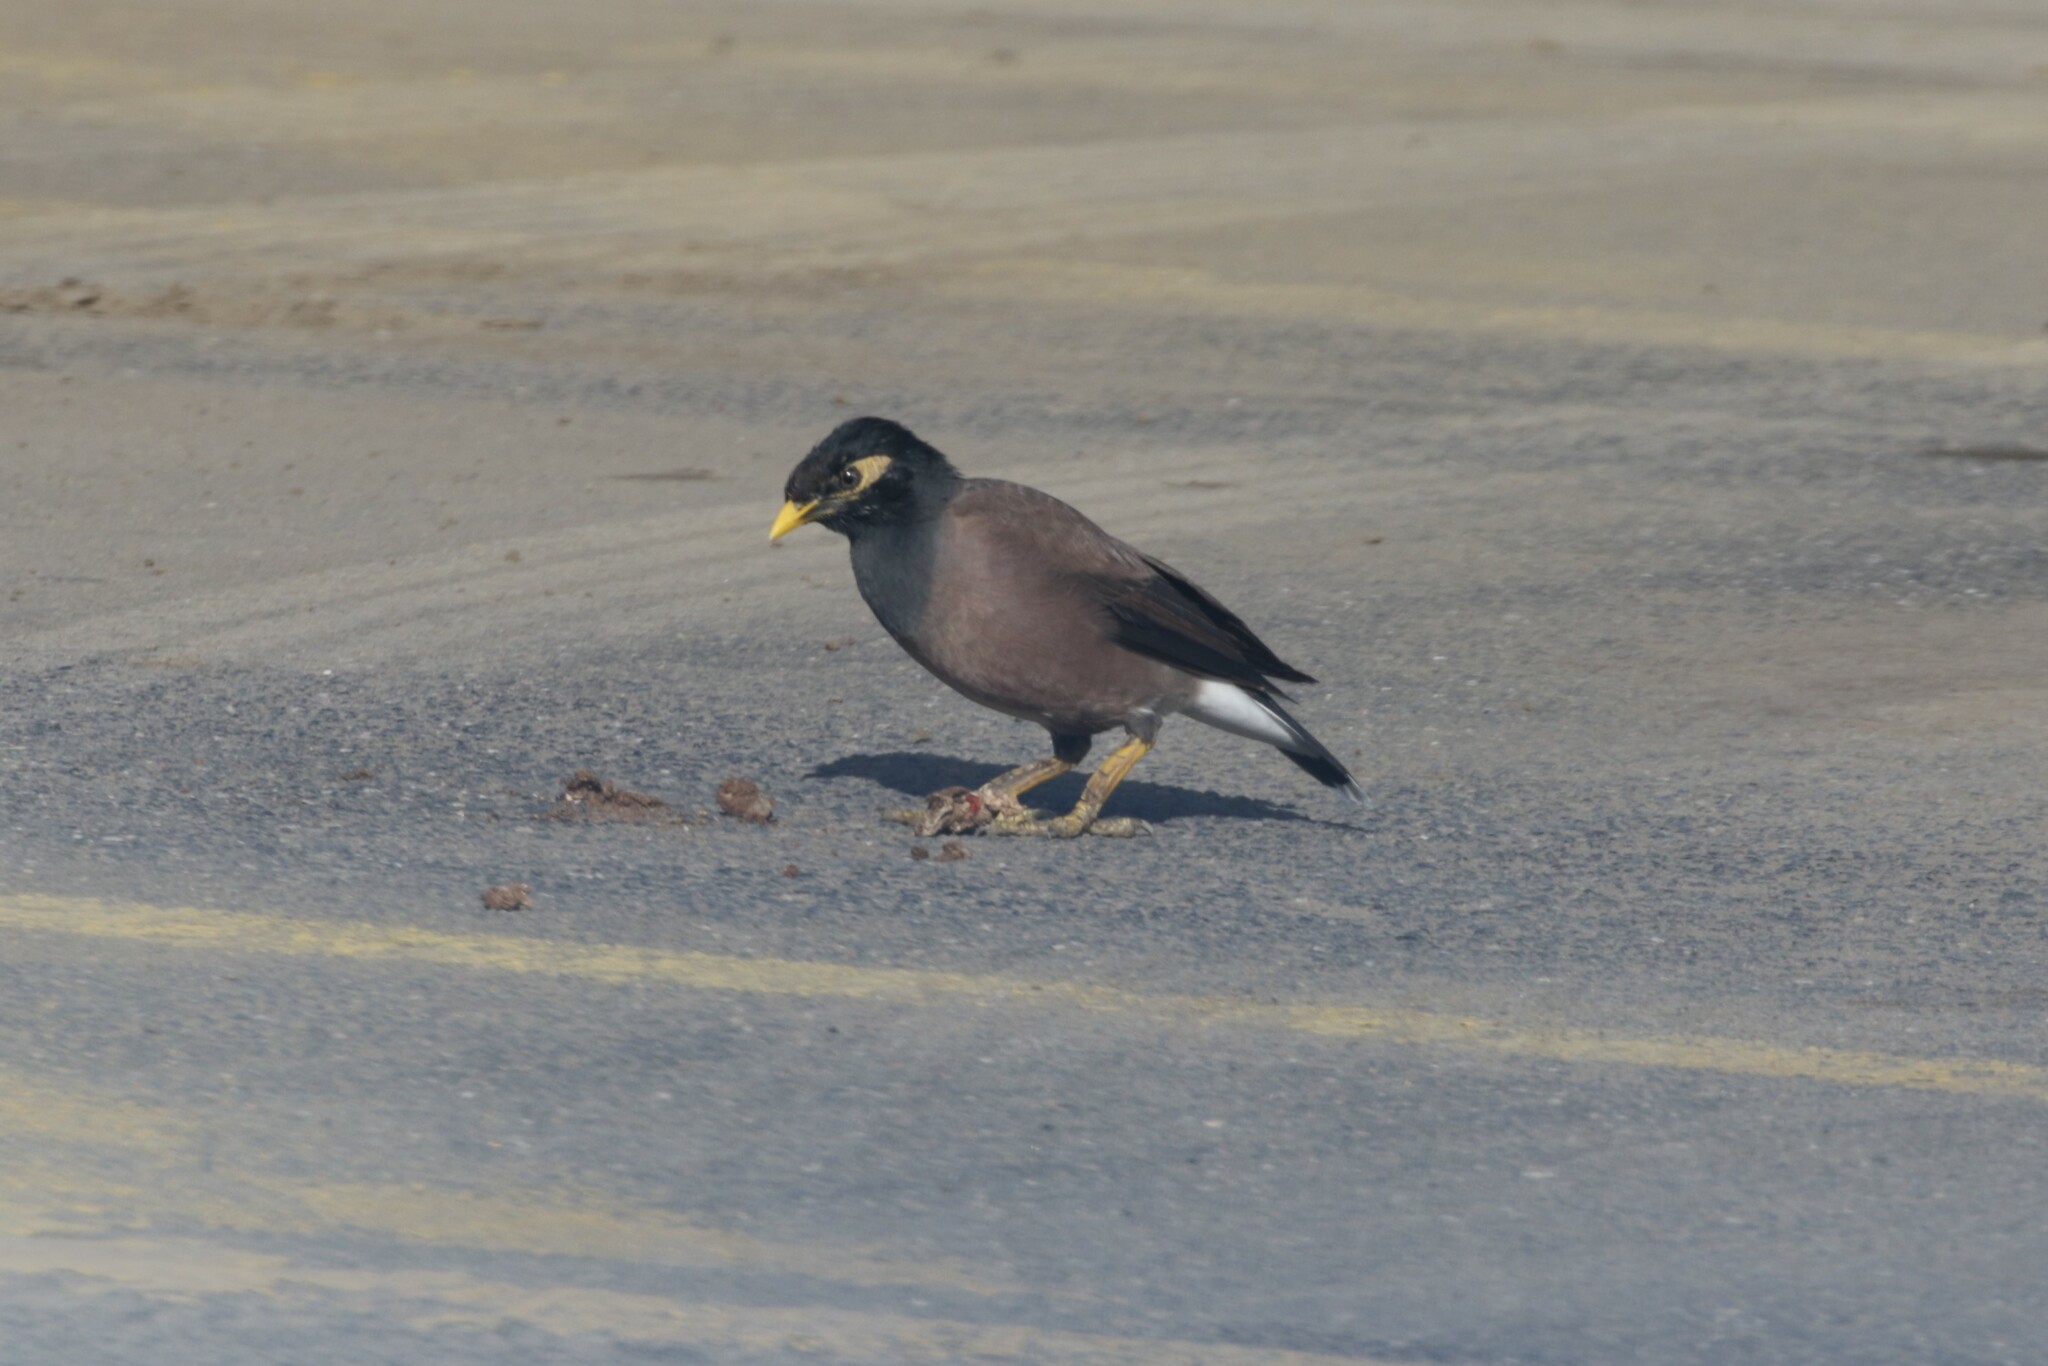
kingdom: Animalia
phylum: Chordata
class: Aves
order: Passeriformes
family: Sturnidae
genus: Acridotheres
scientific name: Acridotheres tristis
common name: Common myna
